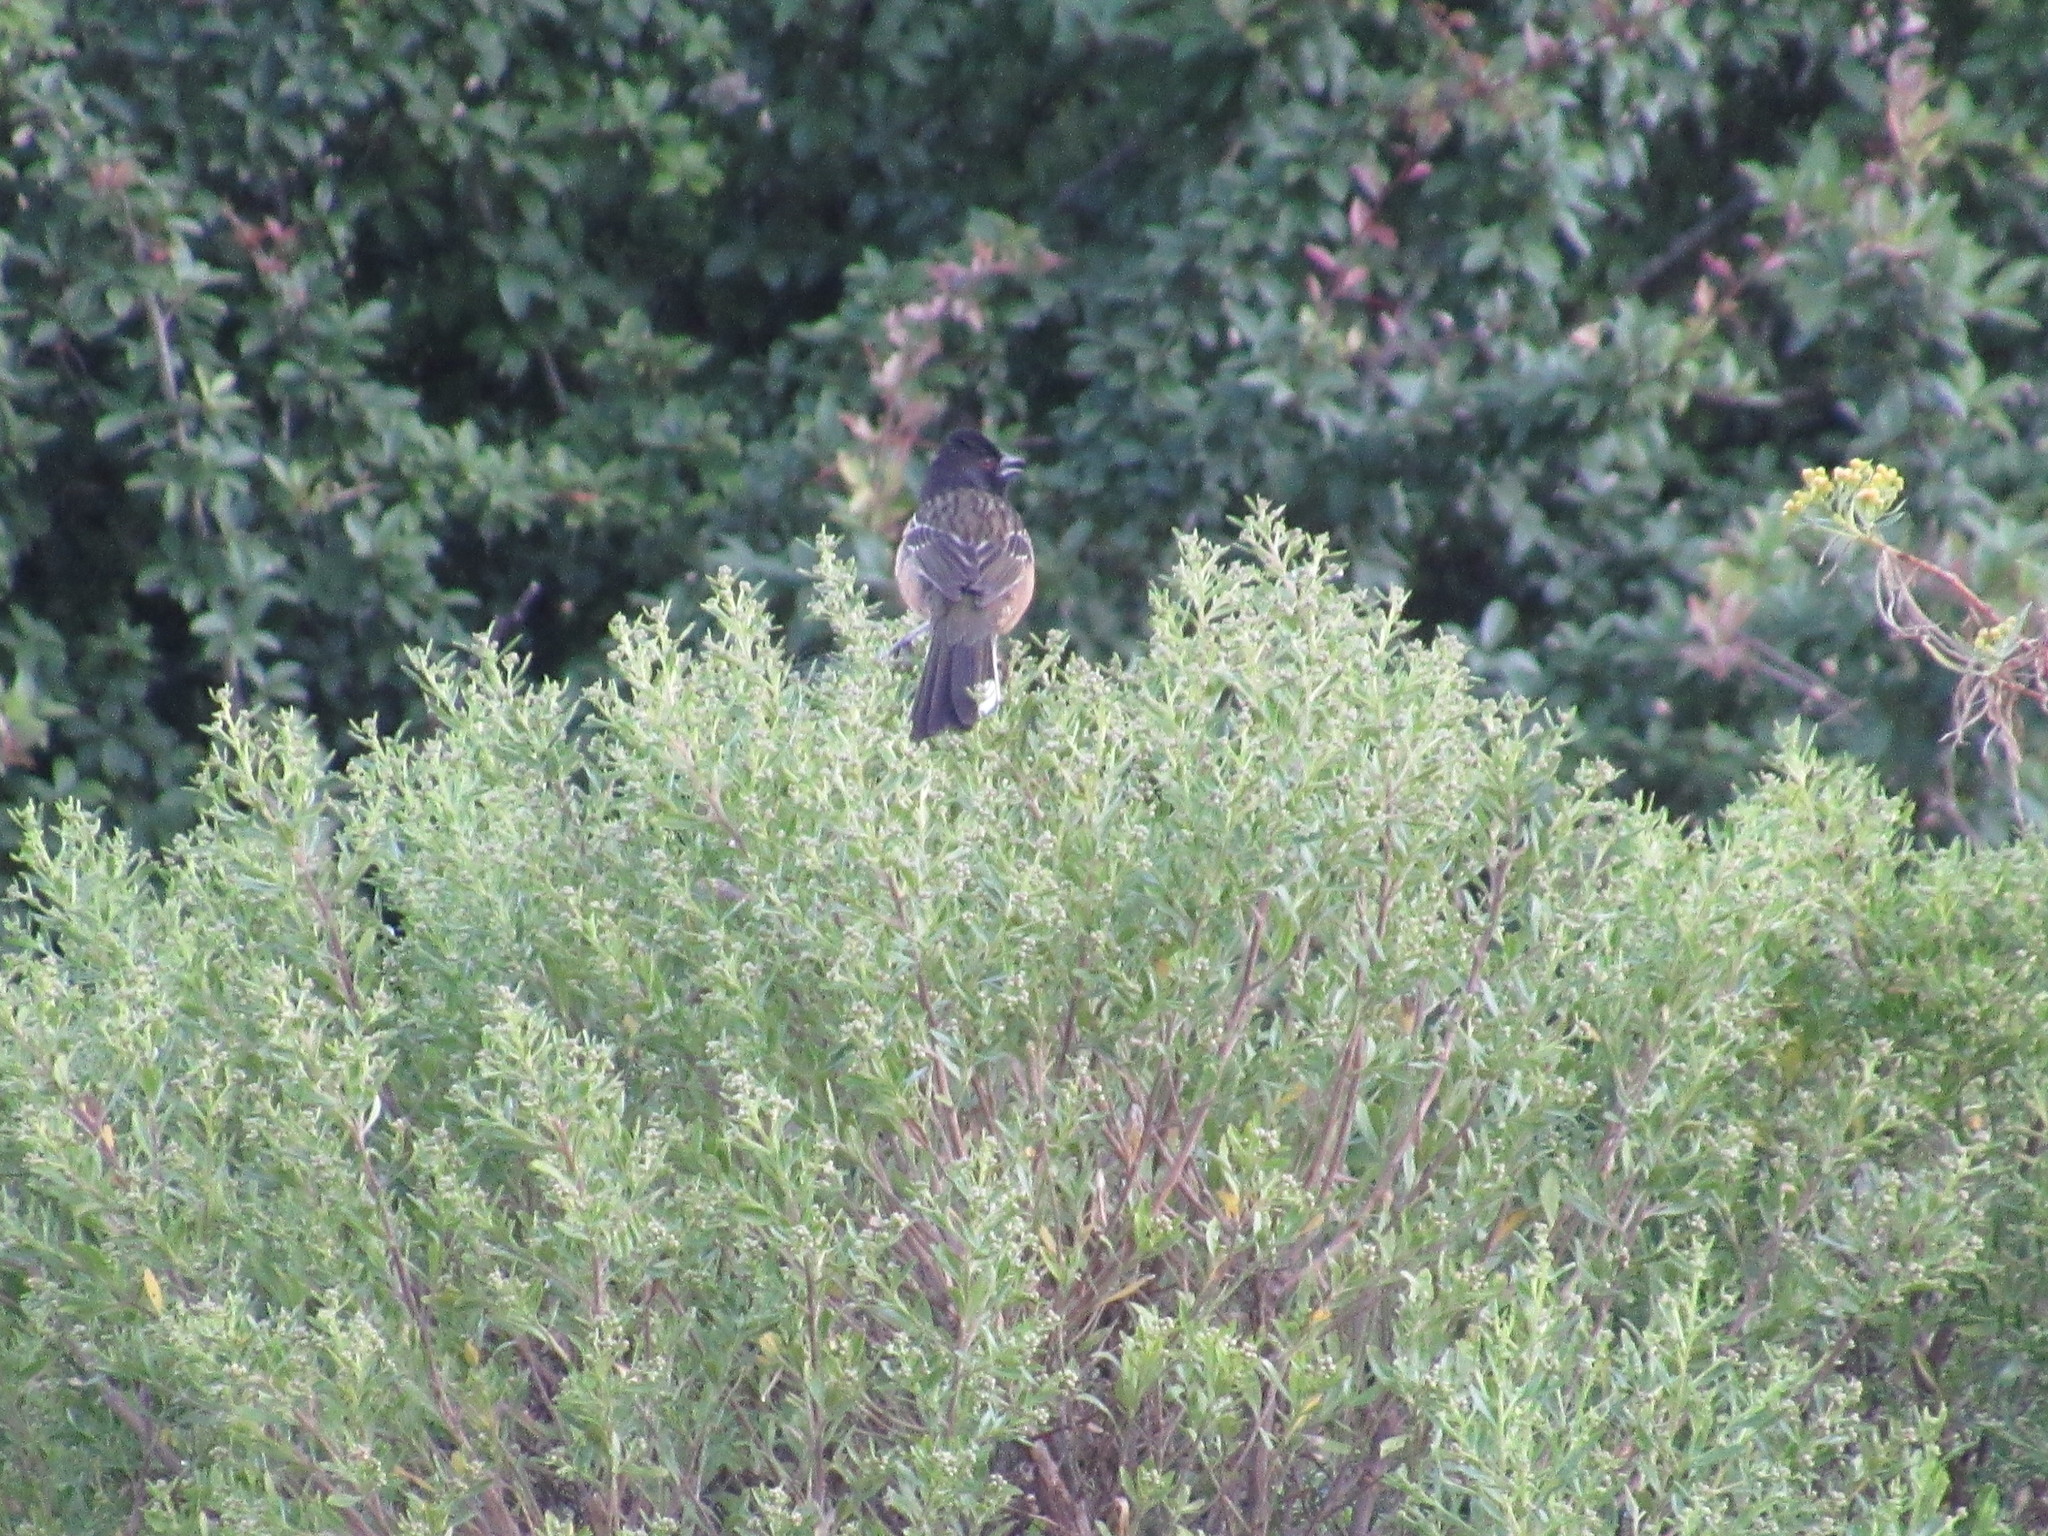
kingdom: Animalia
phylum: Chordata
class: Aves
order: Passeriformes
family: Passerellidae
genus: Pipilo
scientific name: Pipilo maculatus
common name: Spotted towhee
